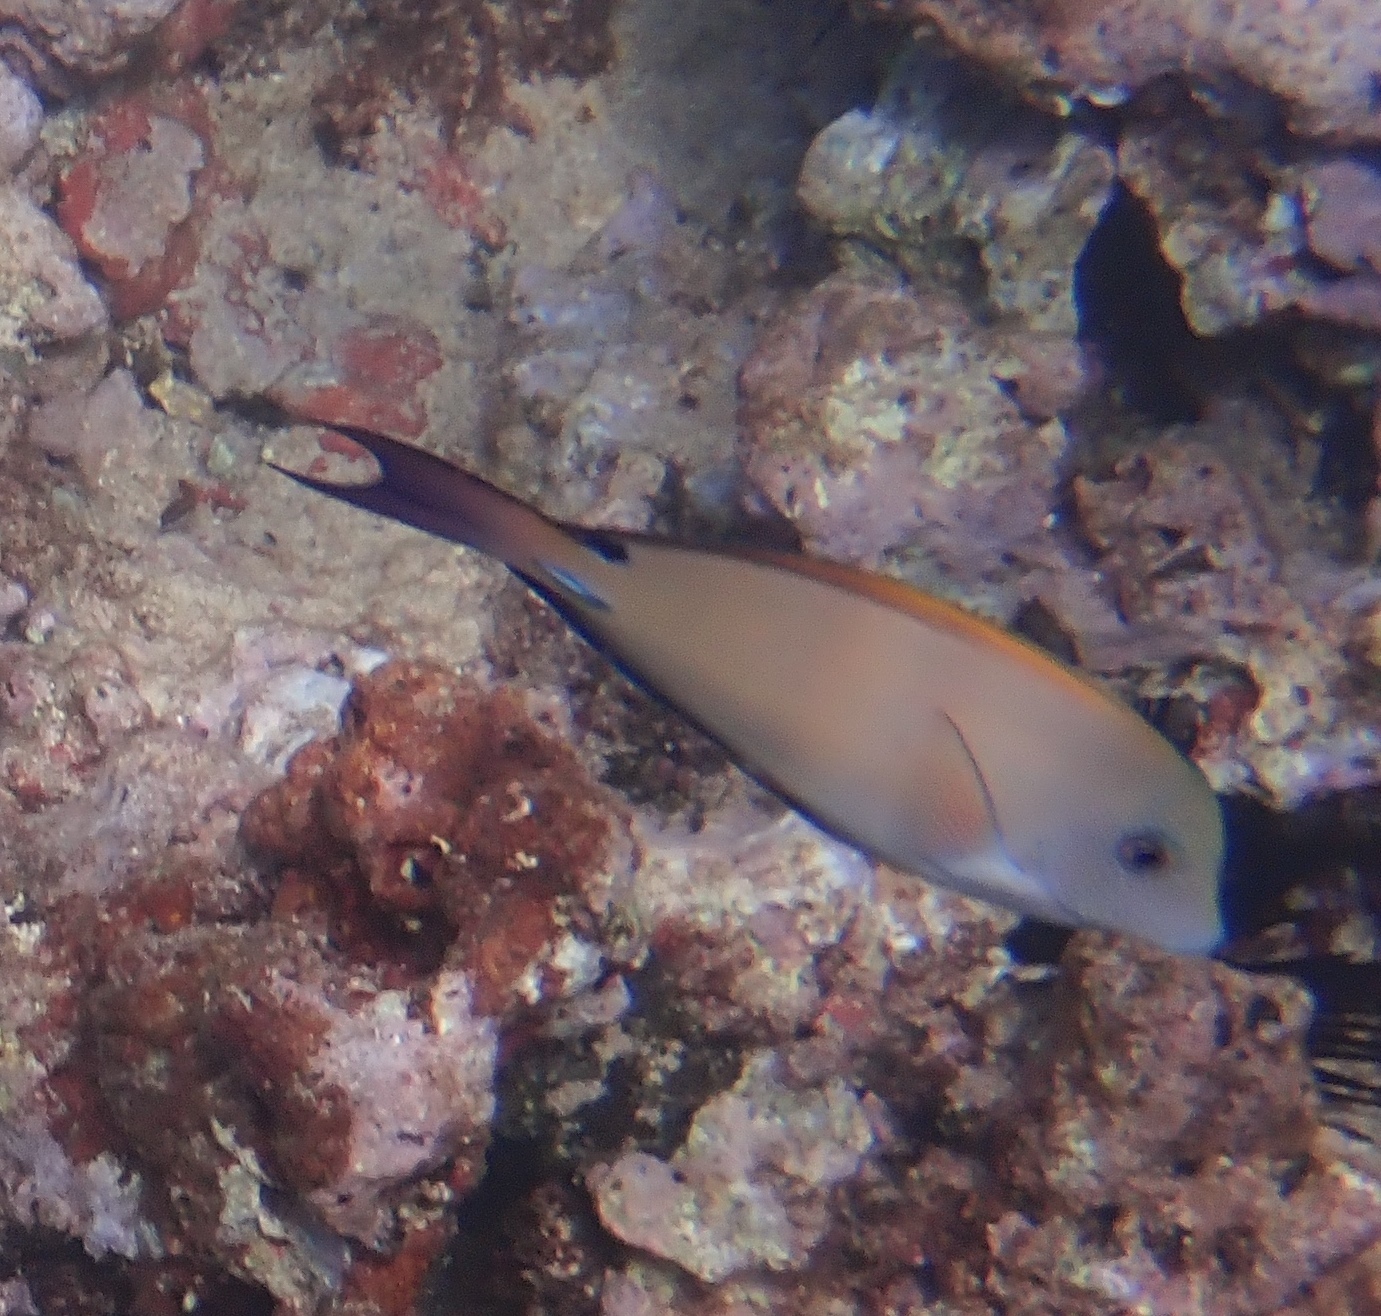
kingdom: Animalia
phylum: Chordata
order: Perciformes
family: Acanthuridae
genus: Acanthurus
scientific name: Acanthurus nigrofuscus
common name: Blackspot surgeonfish
